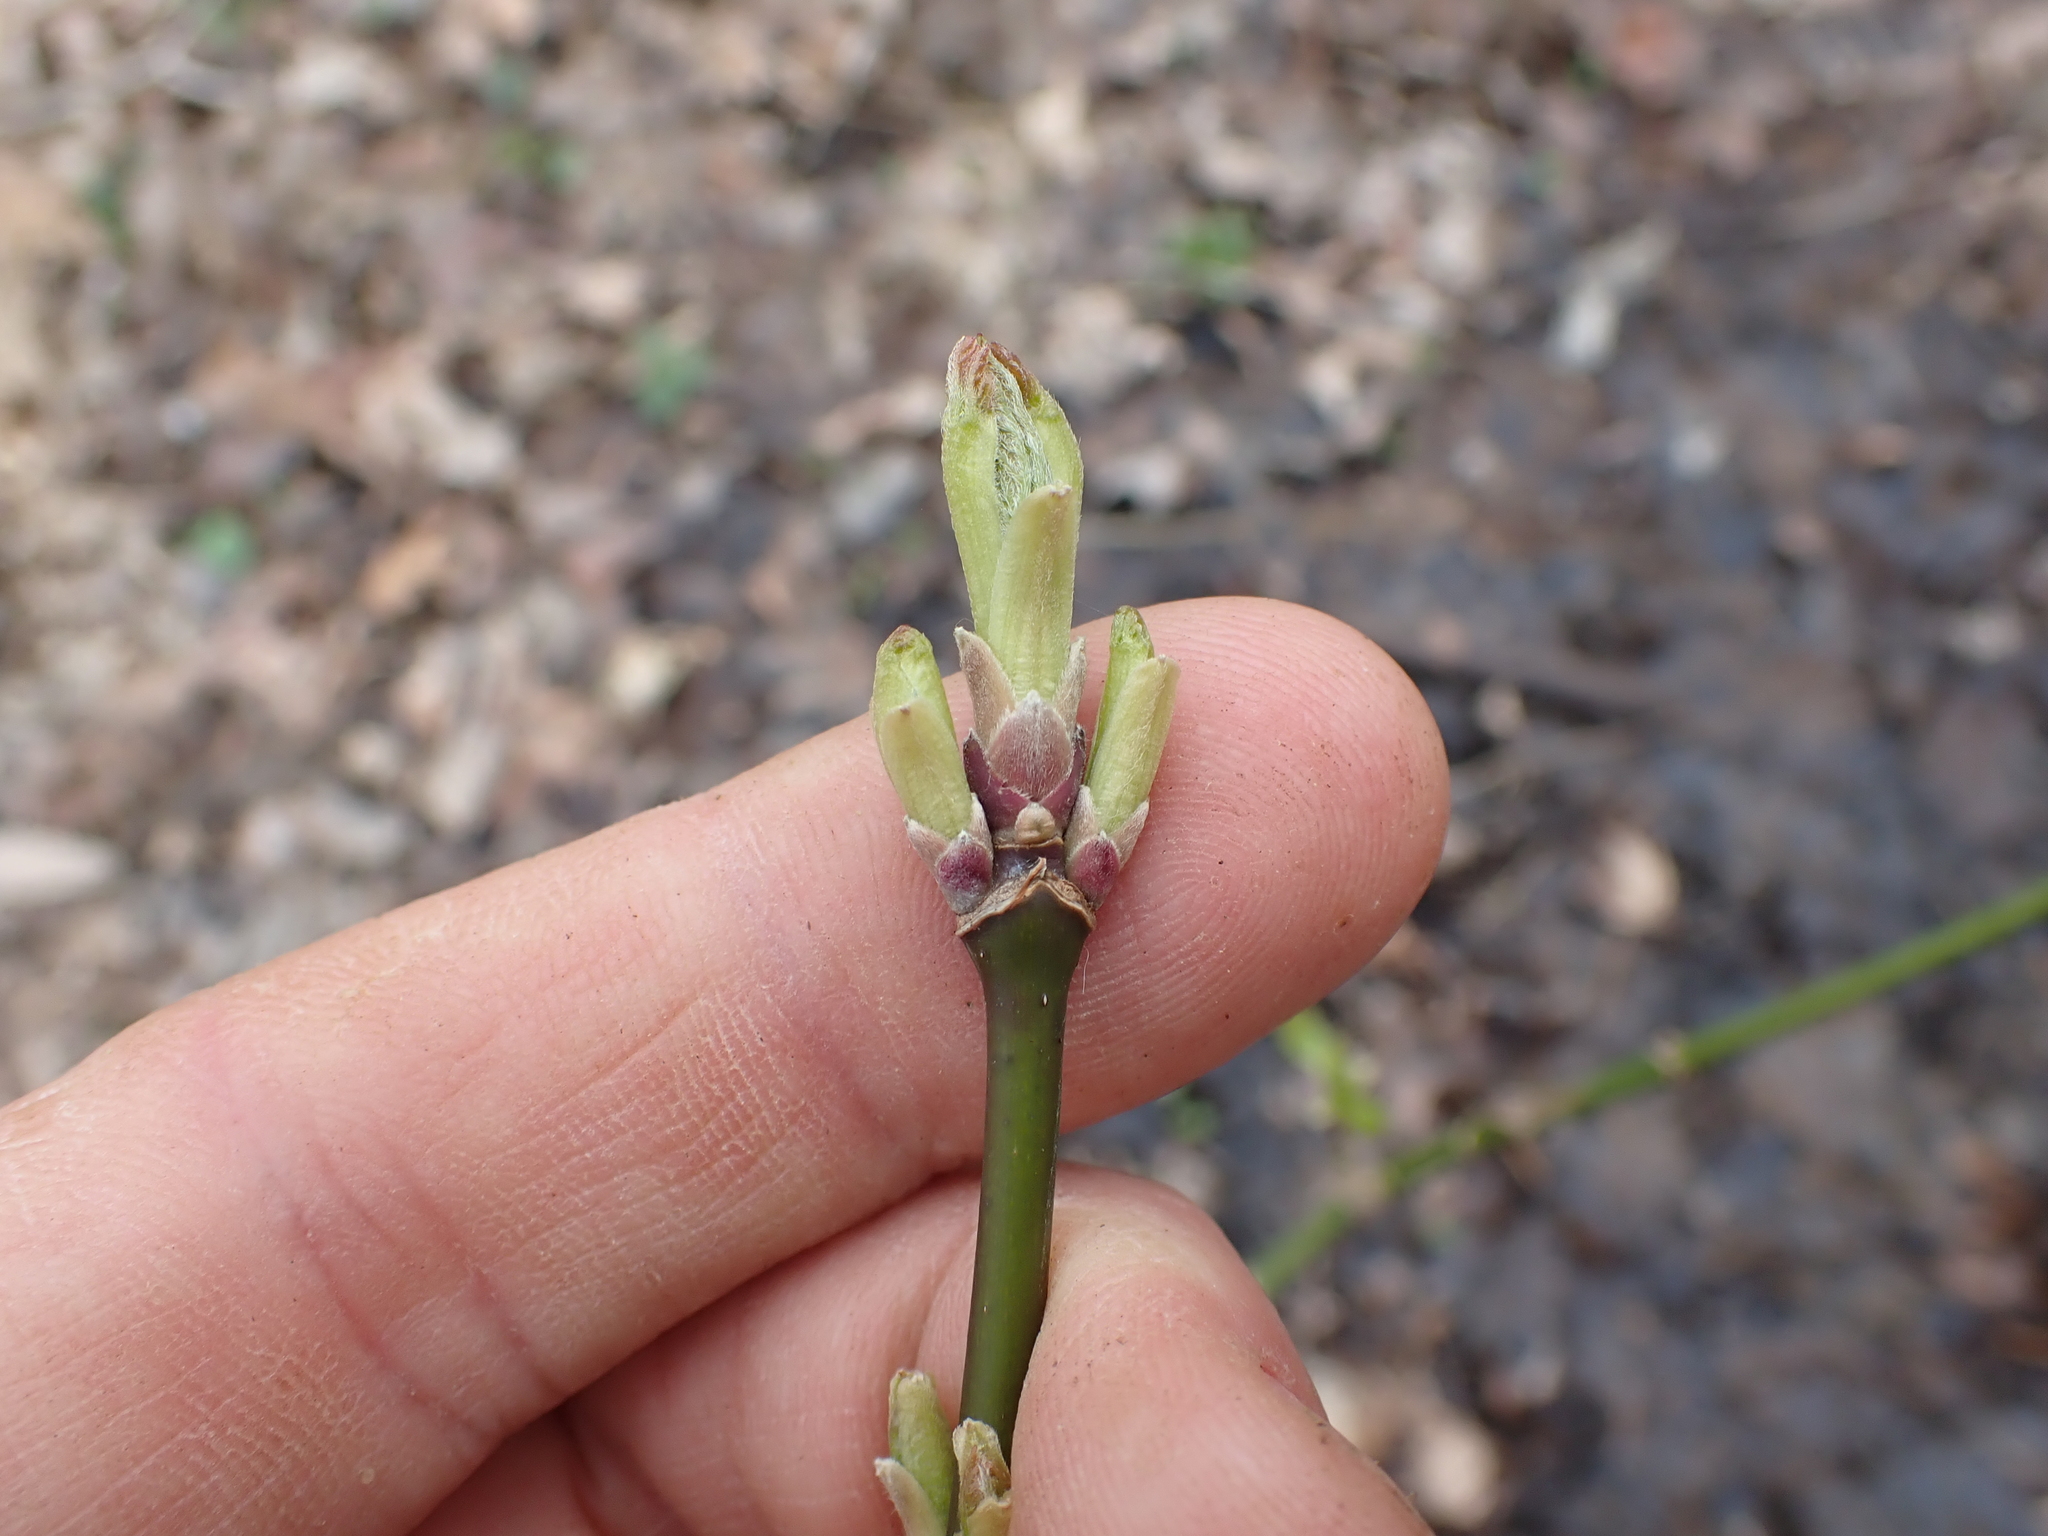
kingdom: Plantae
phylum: Tracheophyta
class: Magnoliopsida
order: Sapindales
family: Sapindaceae
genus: Acer
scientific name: Acer negundo
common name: Ashleaf maple
